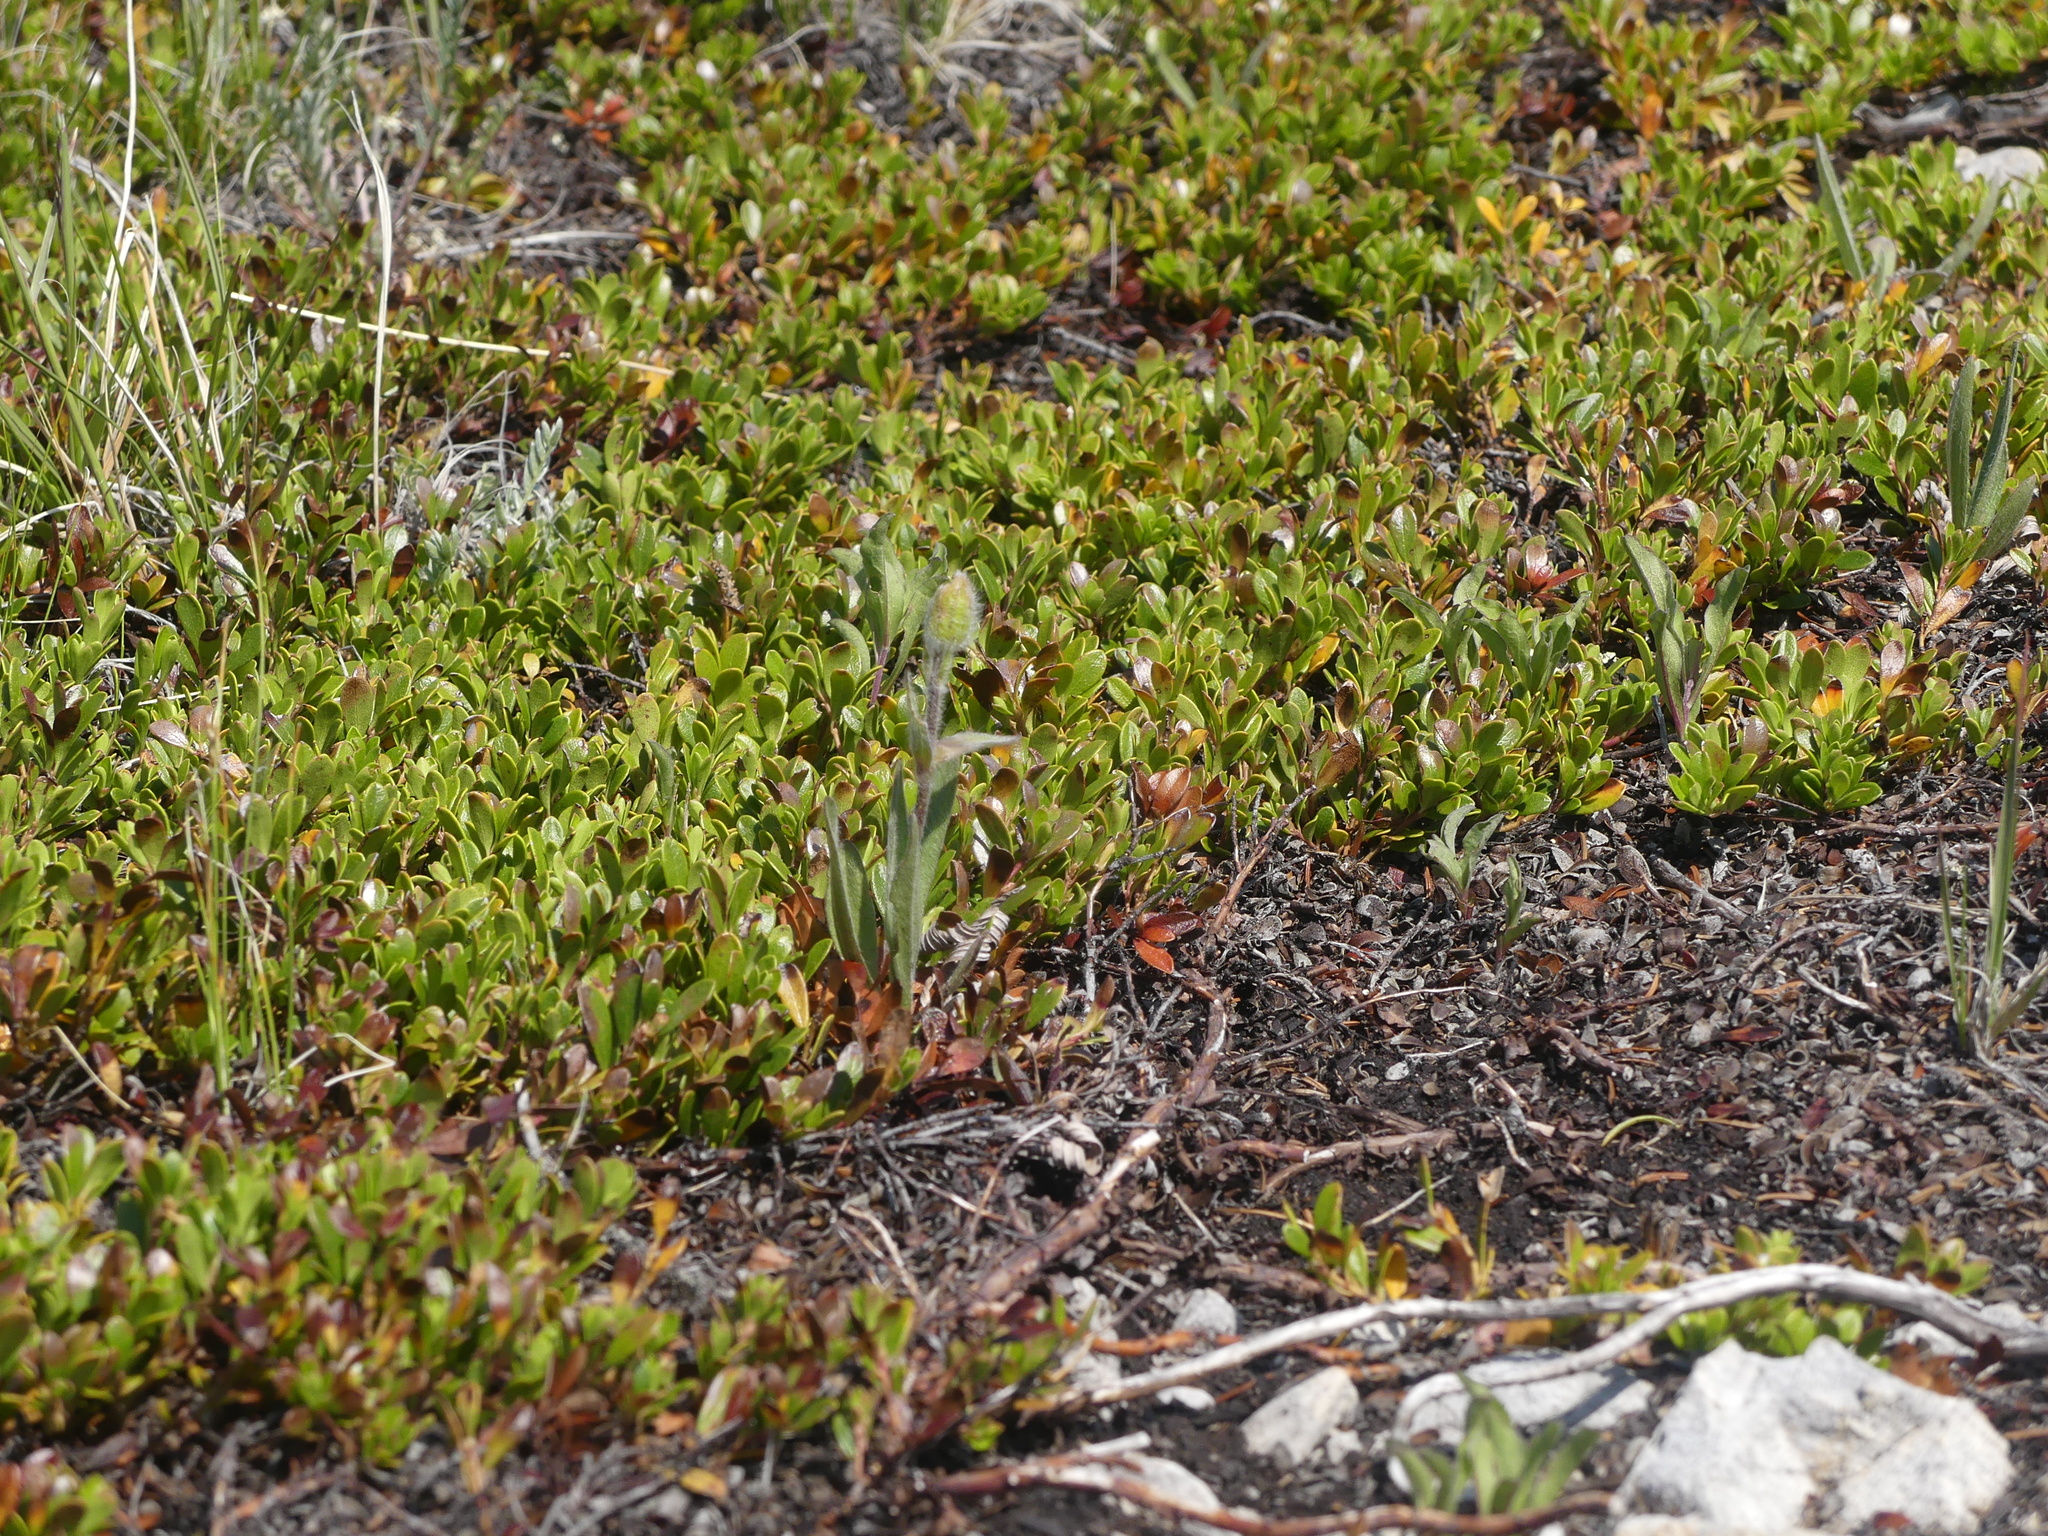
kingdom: Plantae
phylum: Tracheophyta
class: Magnoliopsida
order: Ericales
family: Ericaceae
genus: Arctostaphylos
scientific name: Arctostaphylos uva-ursi
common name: Bearberry
